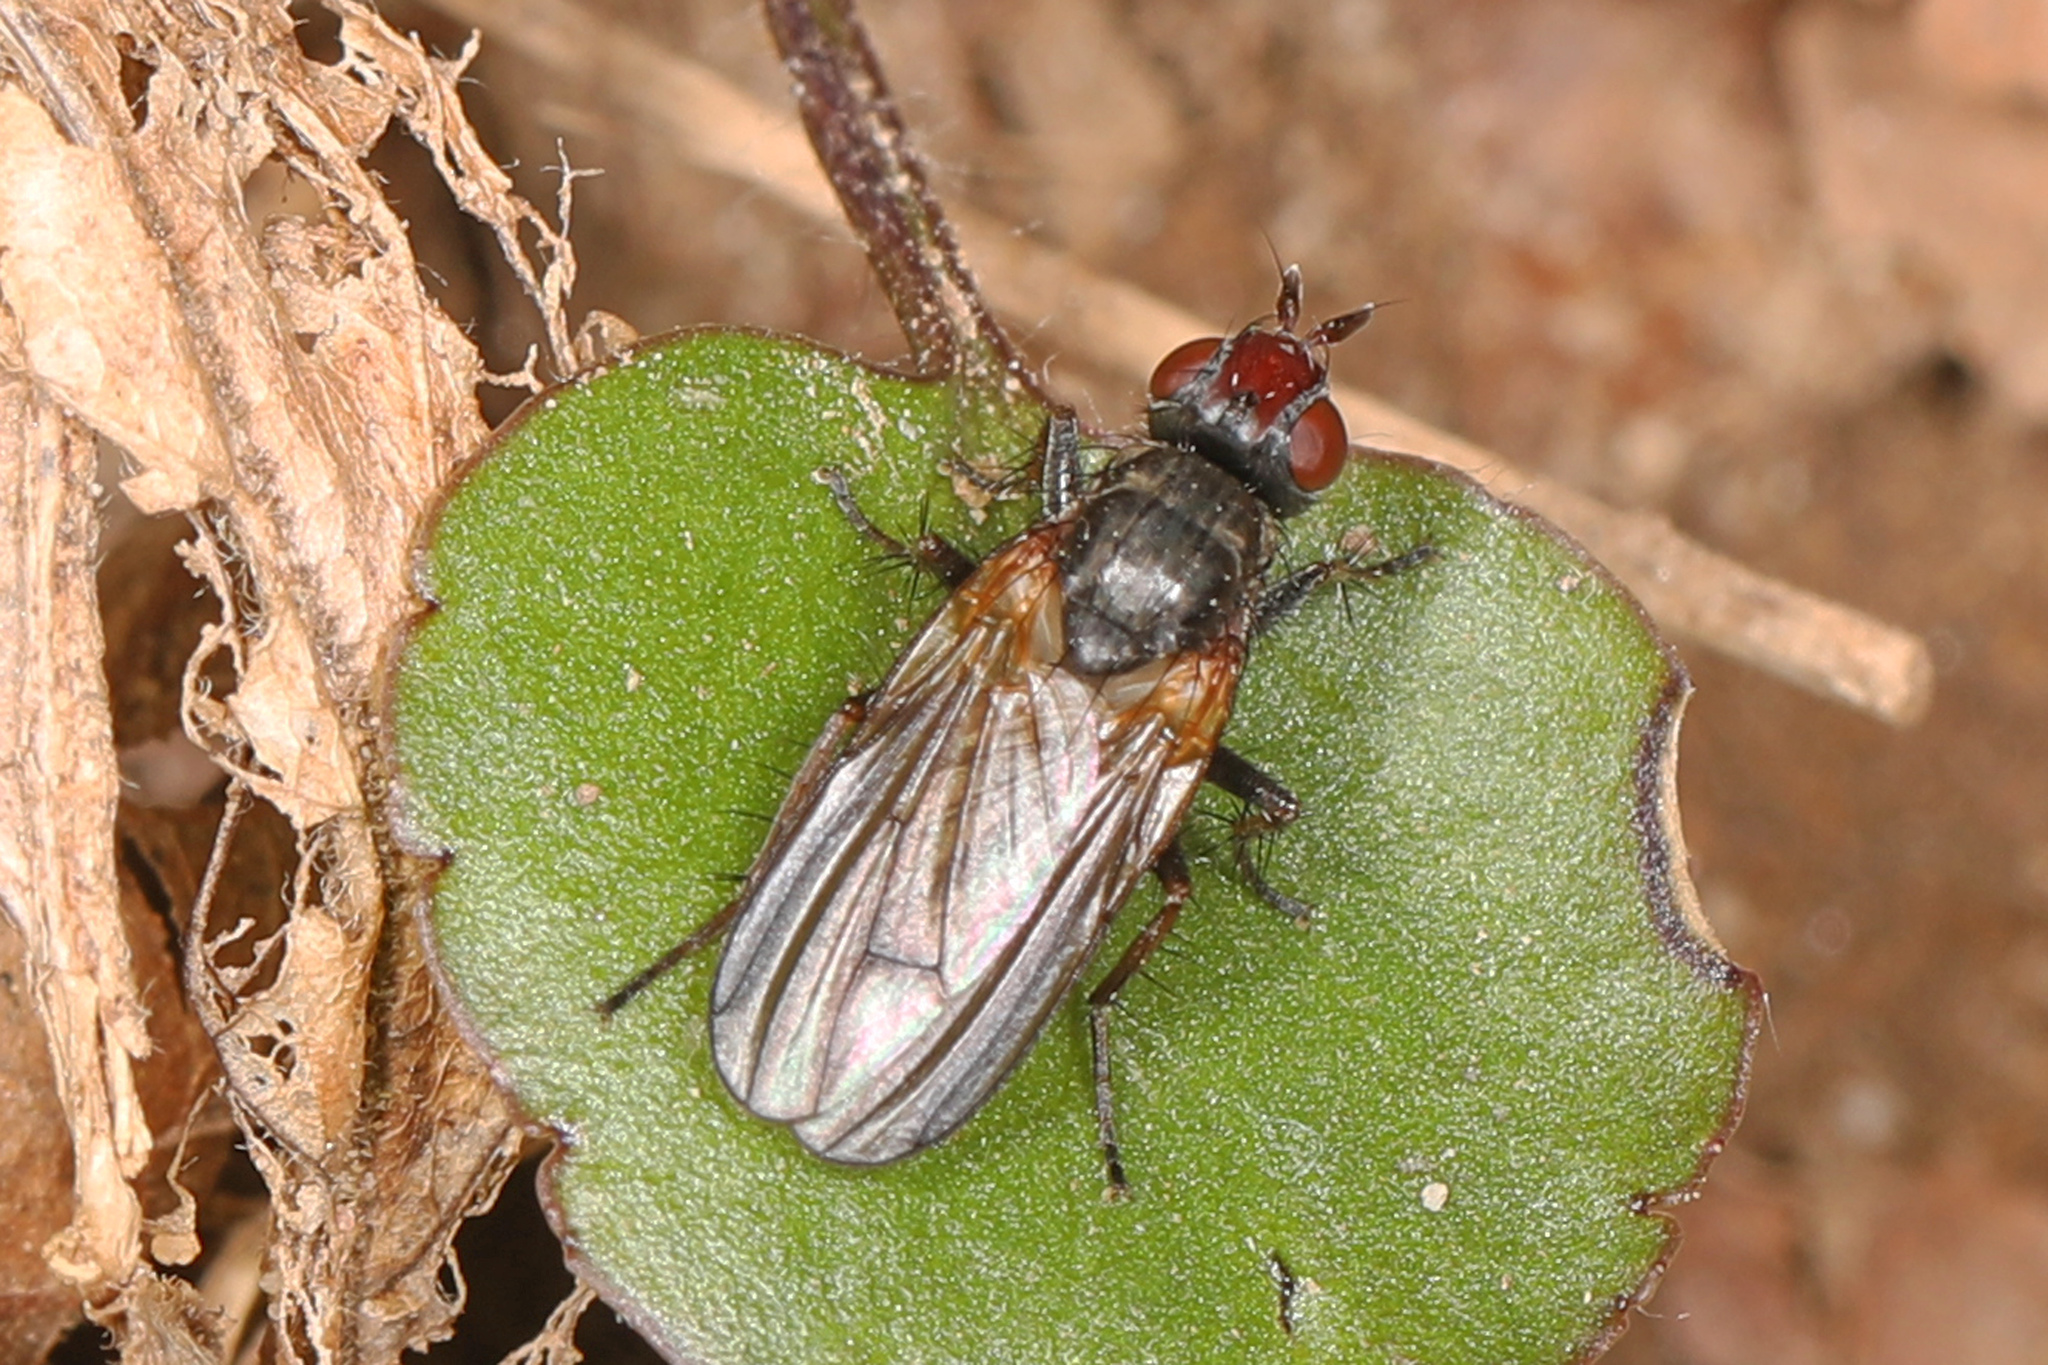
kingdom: Animalia
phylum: Arthropoda
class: Insecta
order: Diptera
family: Scathophagidae
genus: Bucephalina
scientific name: Bucephalina megacephala
